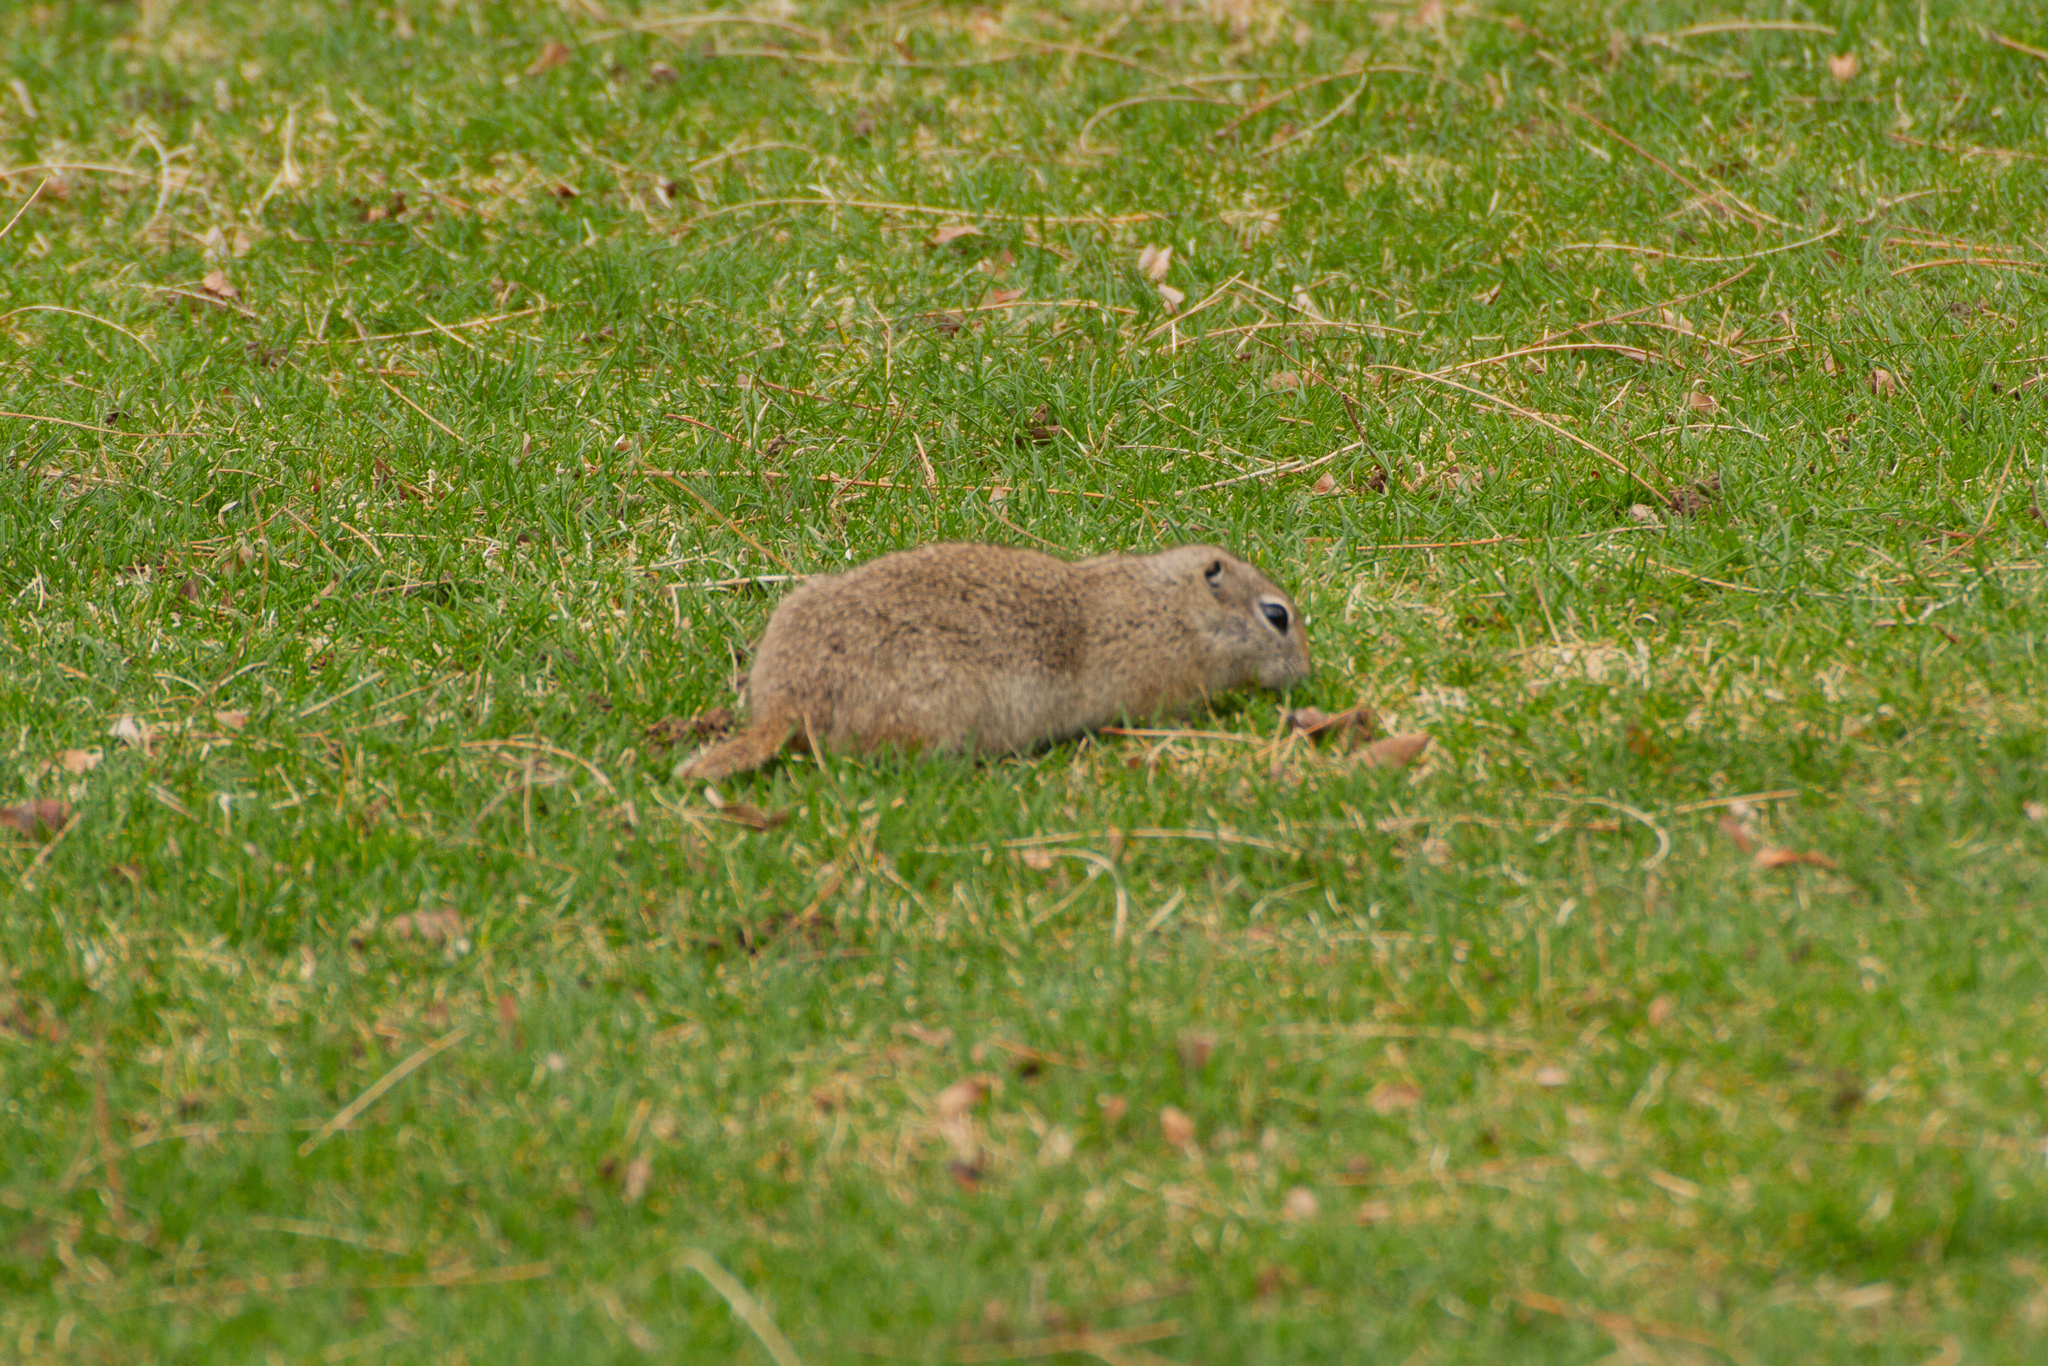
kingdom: Animalia
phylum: Chordata
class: Mammalia
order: Rodentia
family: Sciuridae
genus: Urocitellus
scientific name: Urocitellus mollis
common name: Piute ground squirrel
